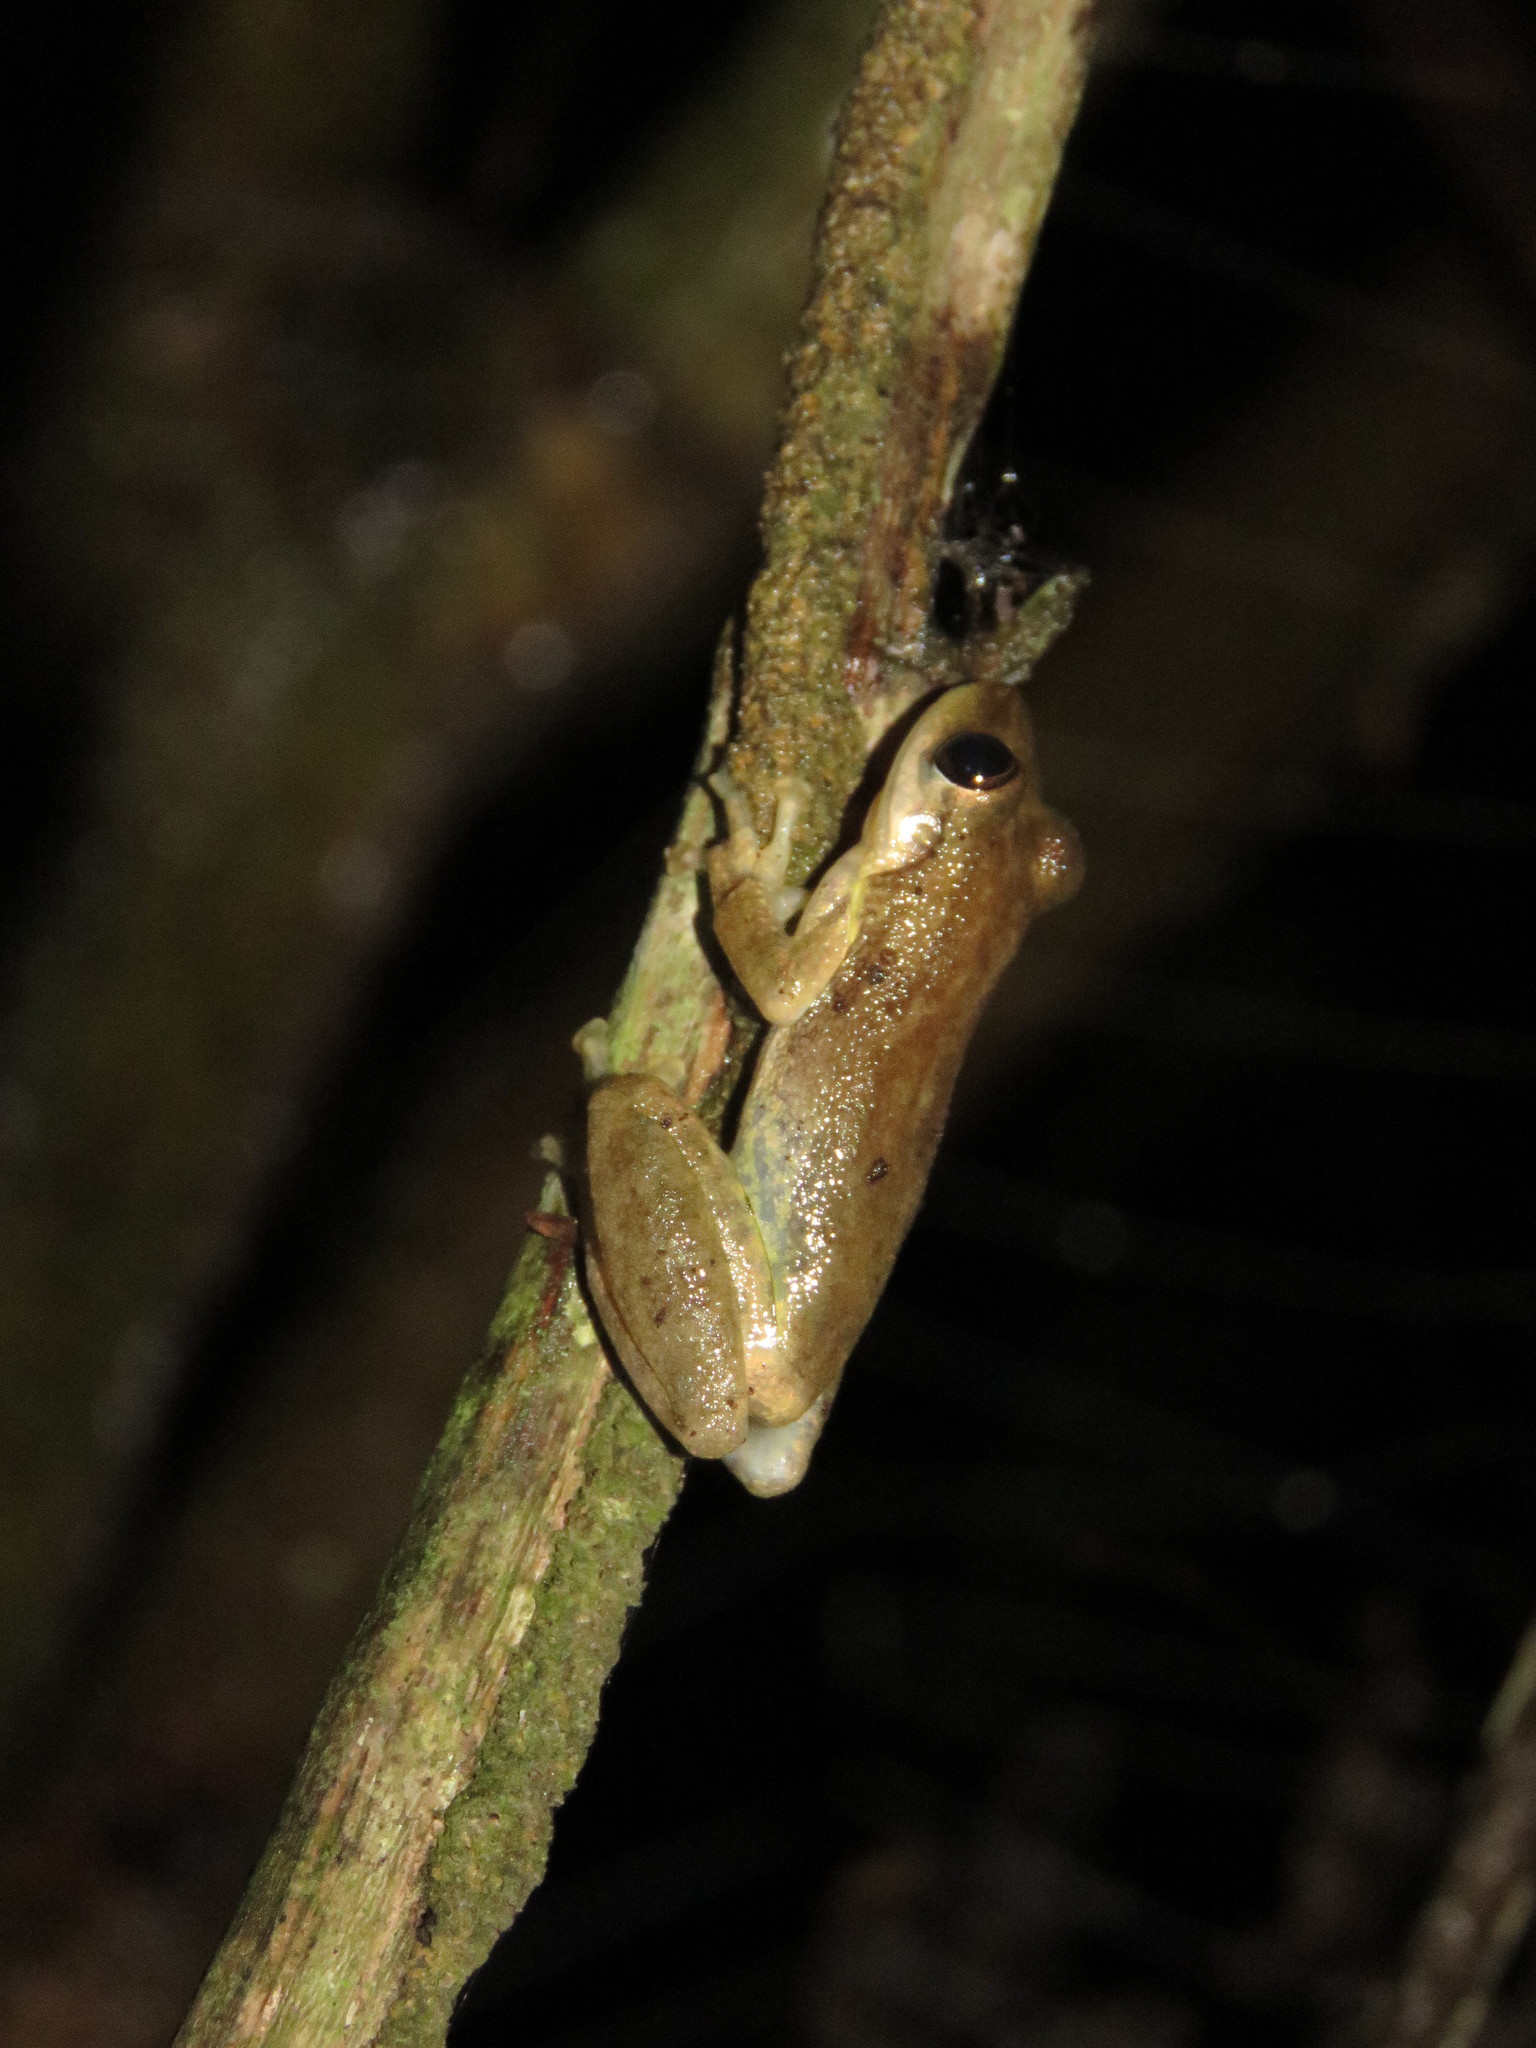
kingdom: Animalia
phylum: Chordata
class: Amphibia
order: Anura
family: Hylidae
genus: Scinax
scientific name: Scinax ruber
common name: Red snouted treefrog
